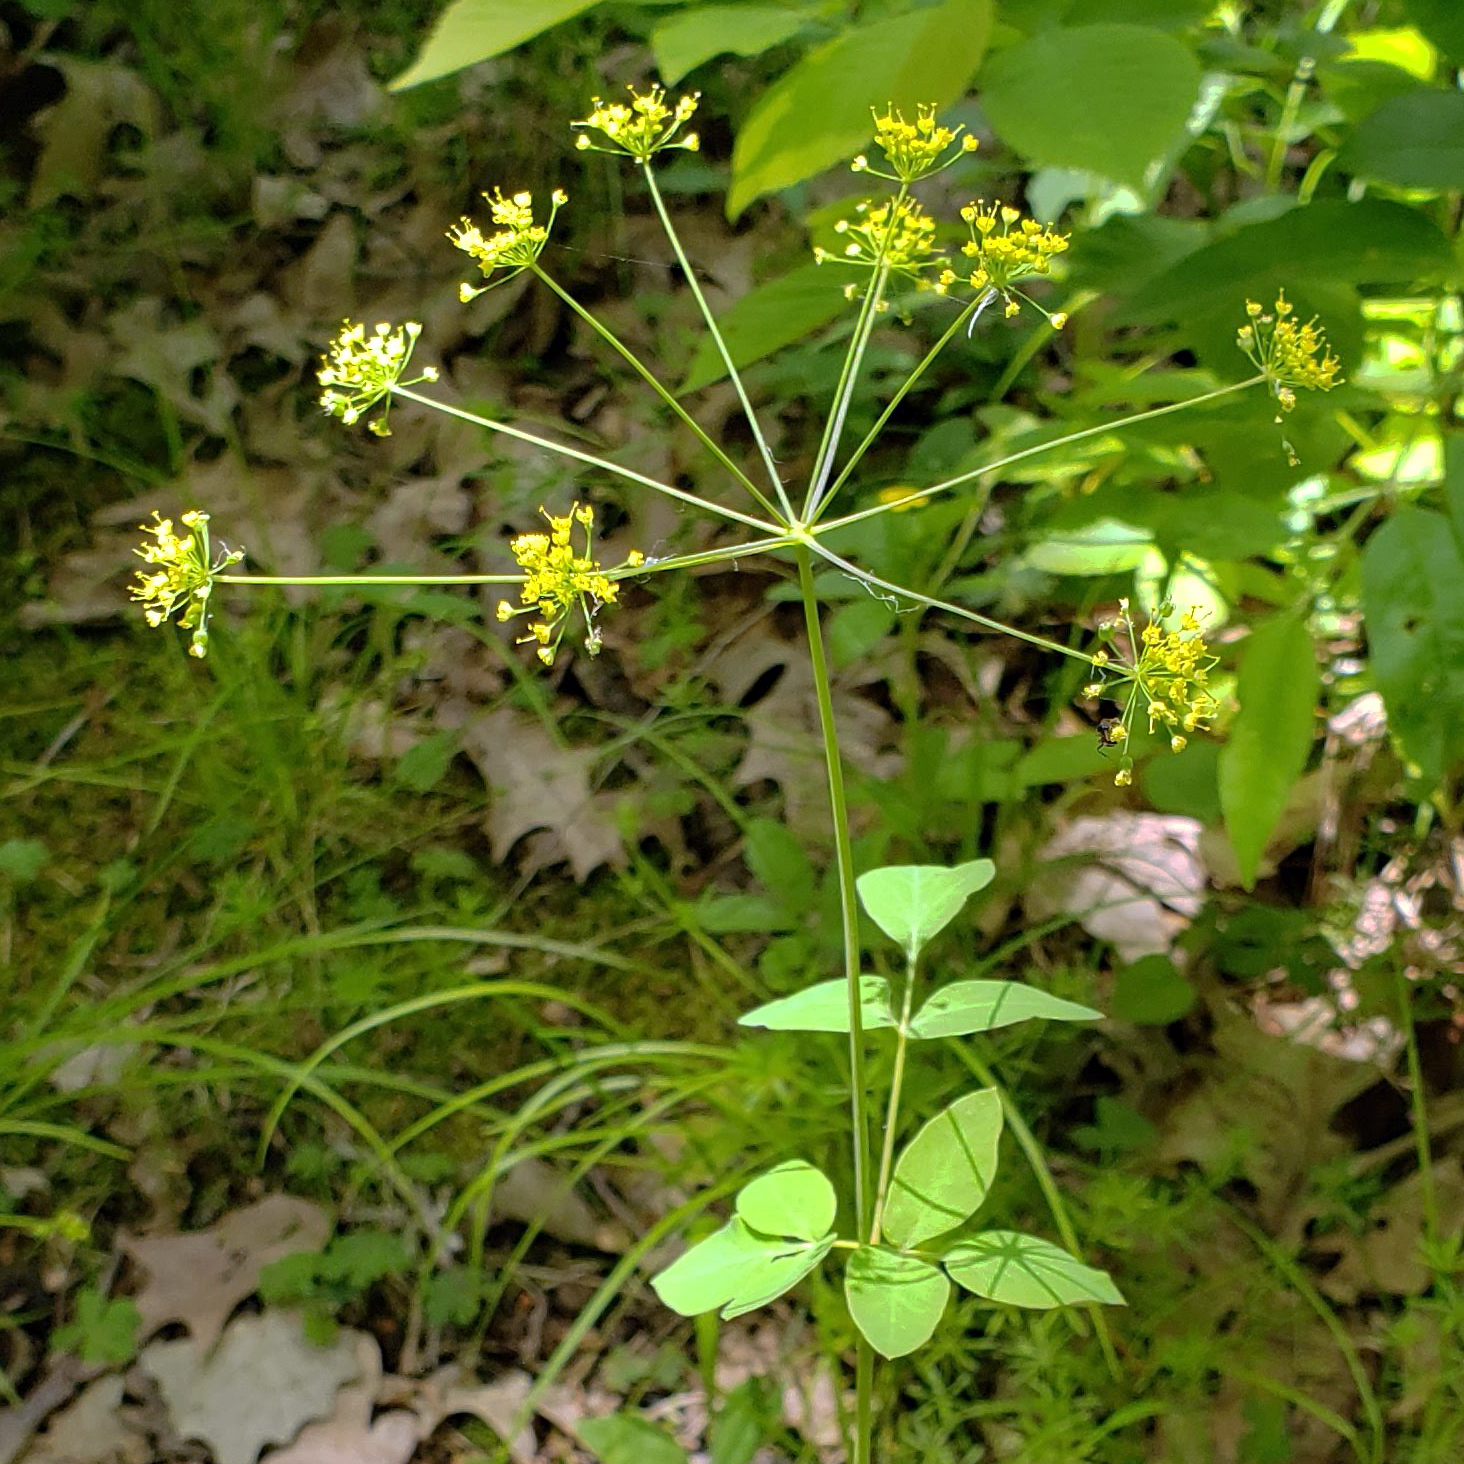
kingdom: Plantae
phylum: Tracheophyta
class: Magnoliopsida
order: Apiales
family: Apiaceae
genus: Taenidia
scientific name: Taenidia integerrima
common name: Golden alexander
